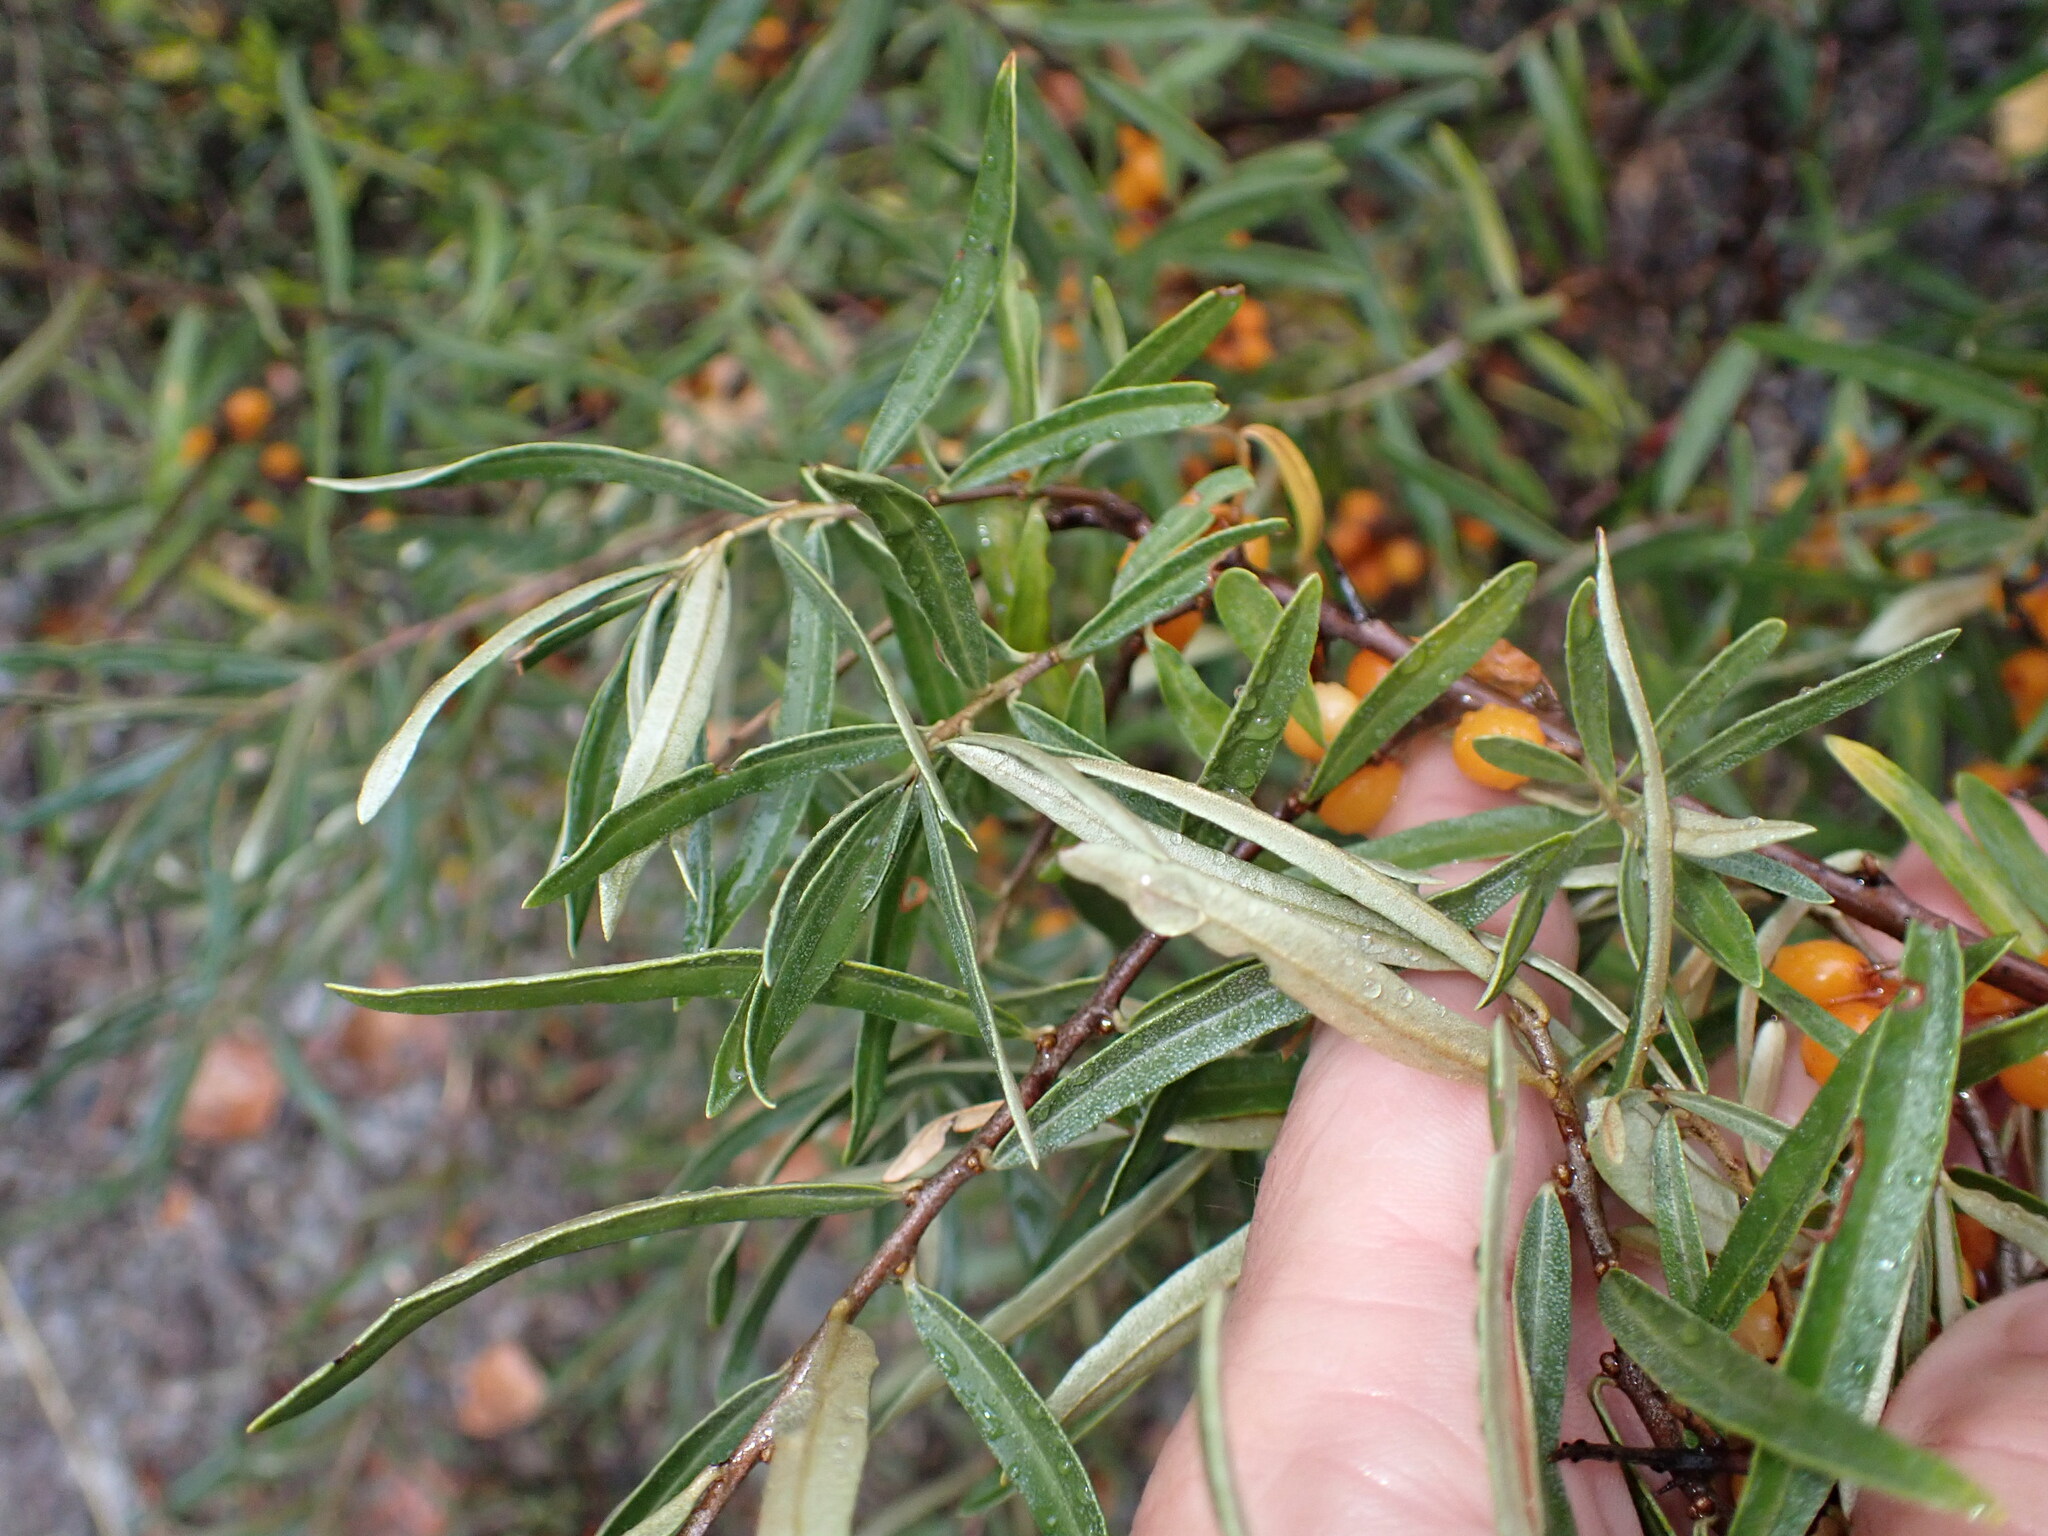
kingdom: Plantae
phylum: Tracheophyta
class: Magnoliopsida
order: Rosales
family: Elaeagnaceae
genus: Hippophae
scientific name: Hippophae rhamnoides
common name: Sea-buckthorn
